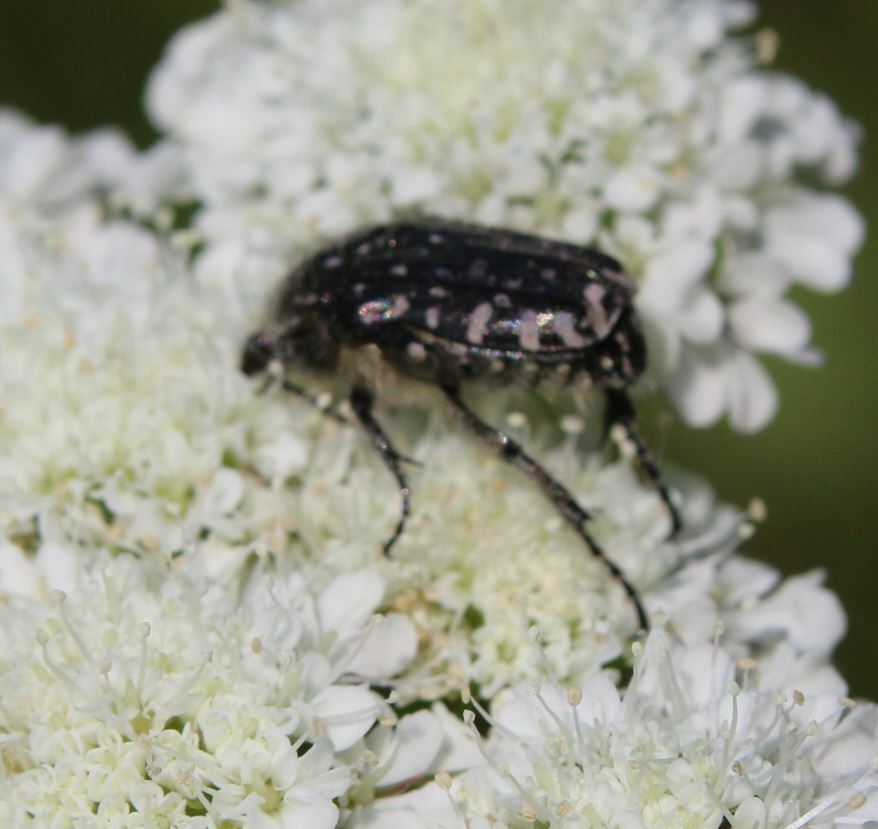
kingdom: Animalia
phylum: Arthropoda
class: Insecta
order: Coleoptera
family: Scarabaeidae
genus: Oxythyrea
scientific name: Oxythyrea funesta
